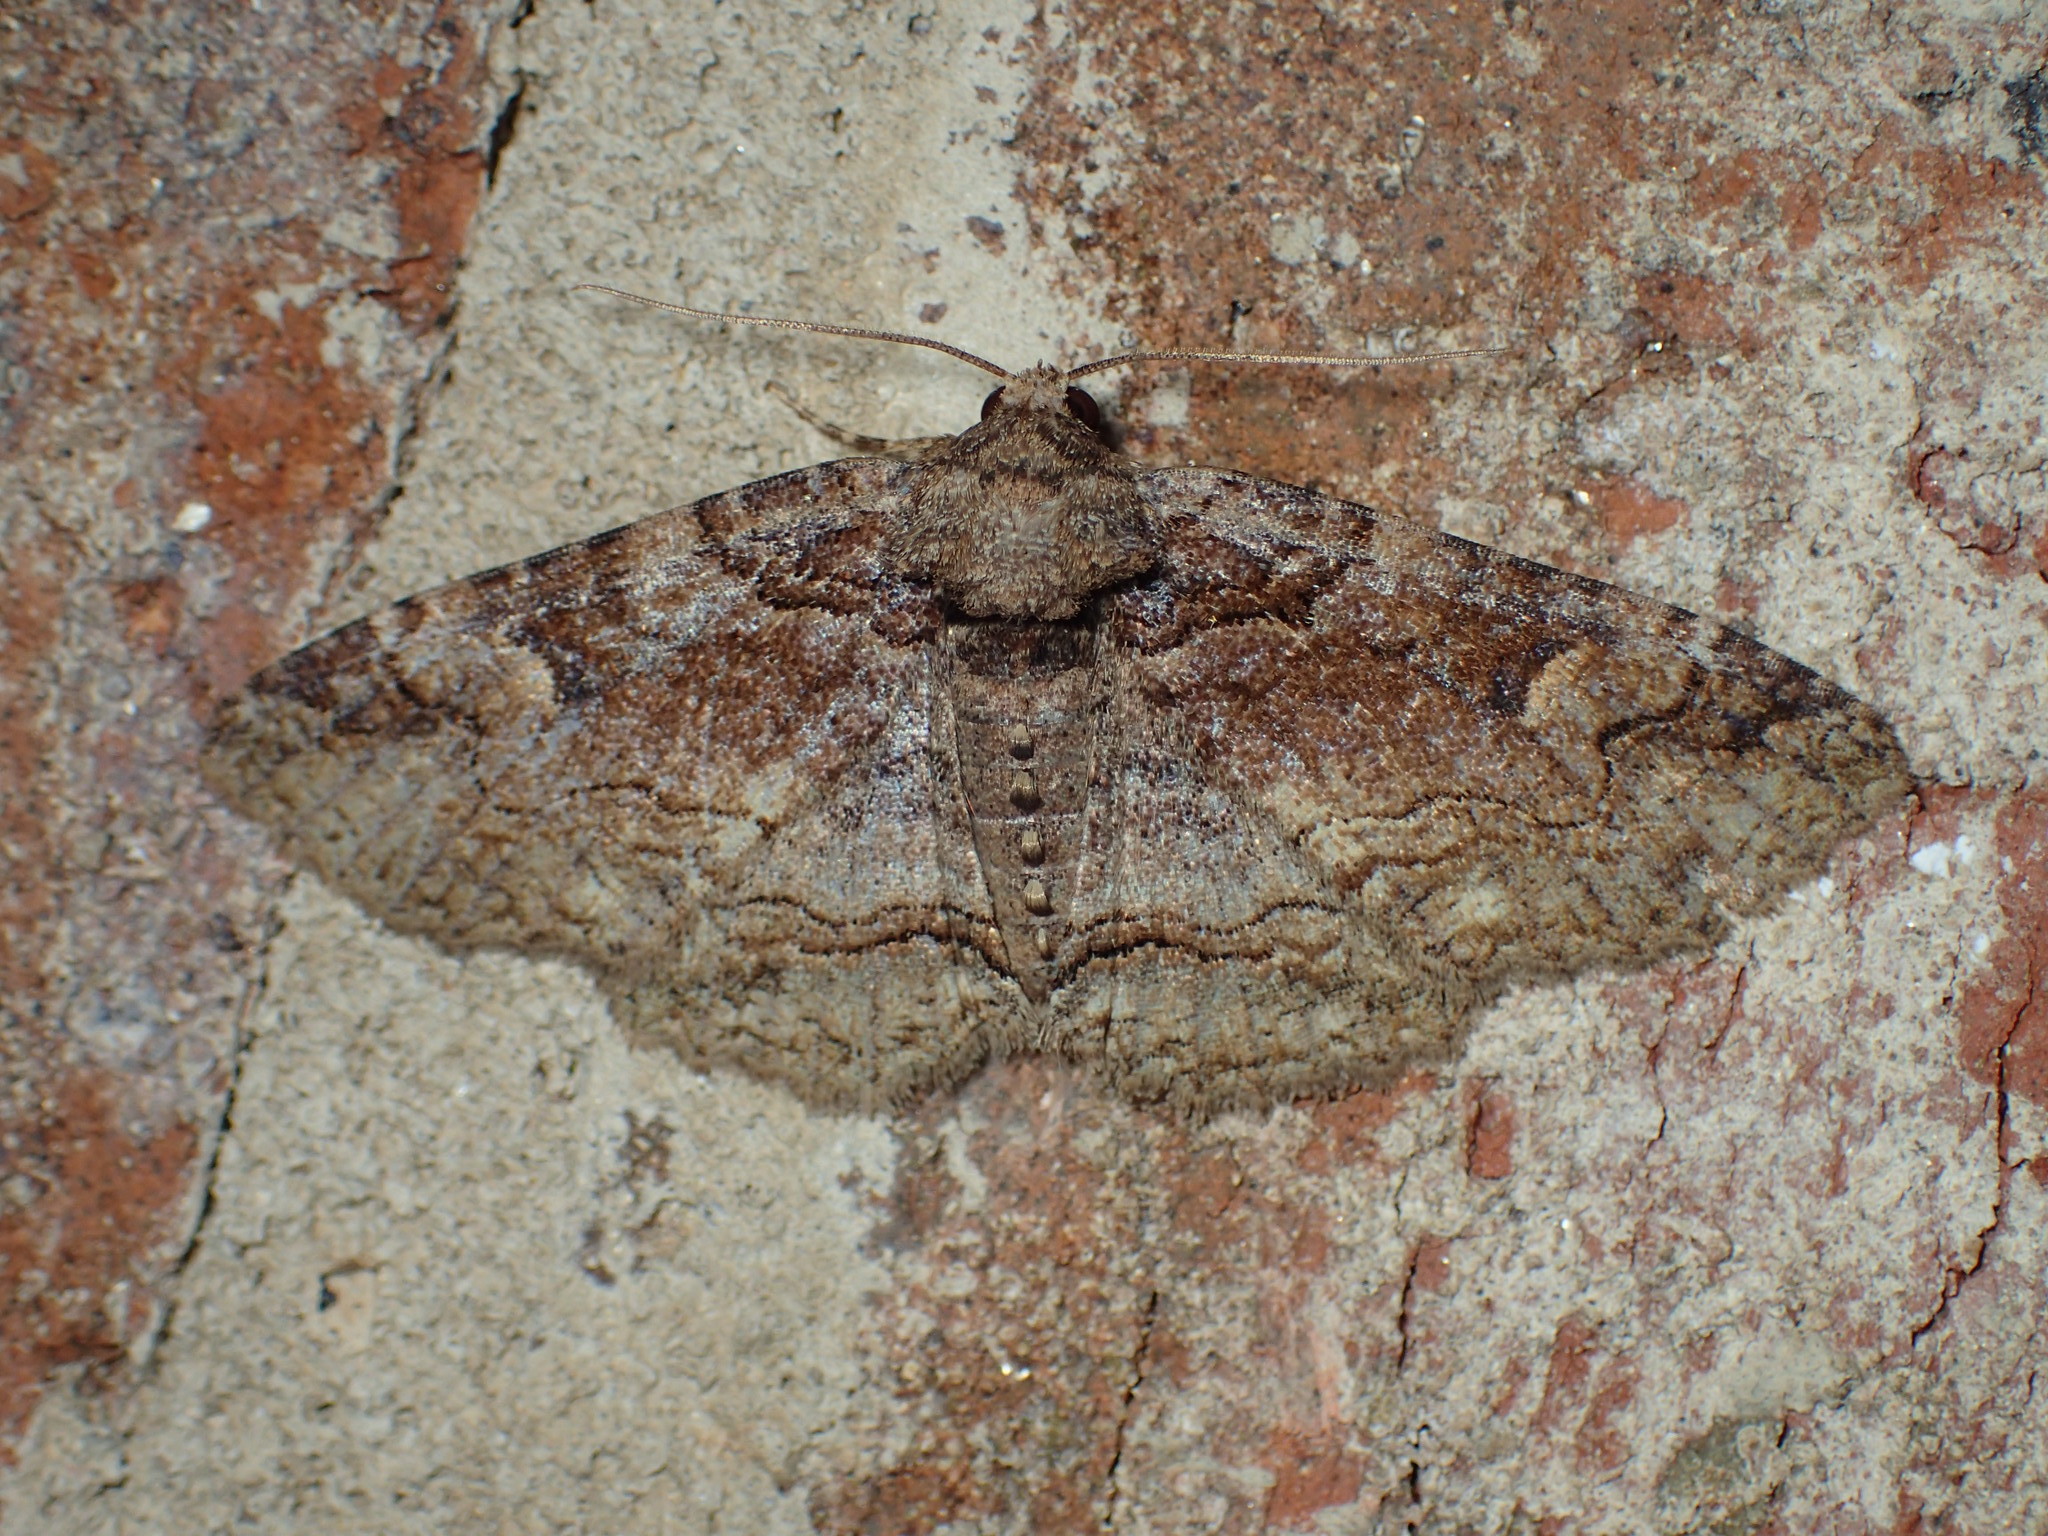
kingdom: Animalia
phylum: Arthropoda
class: Insecta
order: Lepidoptera
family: Erebidae
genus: Zale
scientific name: Zale phaeocapna
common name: Hazel zale moth
